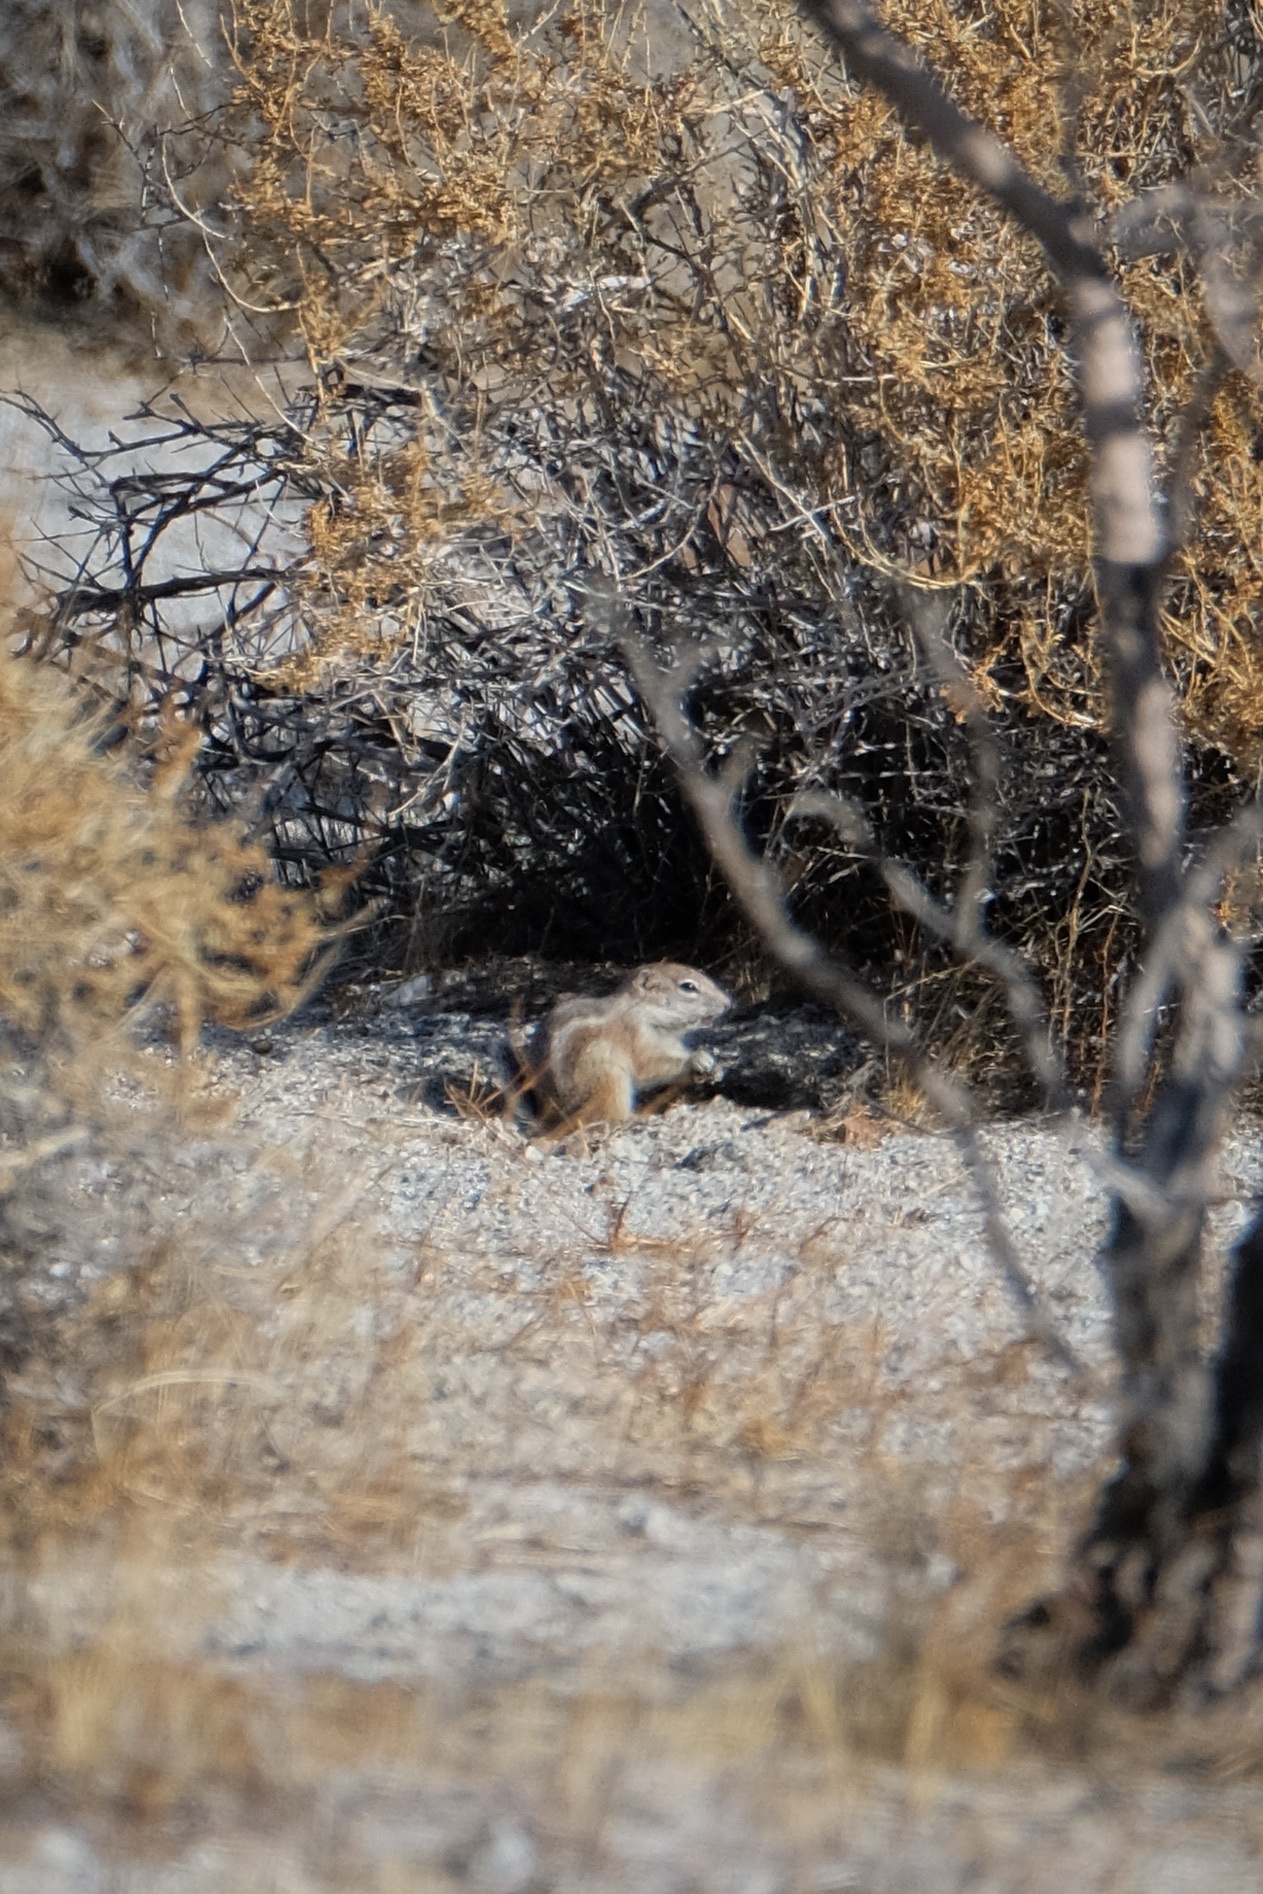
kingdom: Animalia
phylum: Chordata
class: Mammalia
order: Rodentia
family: Sciuridae
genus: Ammospermophilus
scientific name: Ammospermophilus leucurus
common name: White-tailed antelope squirrel
